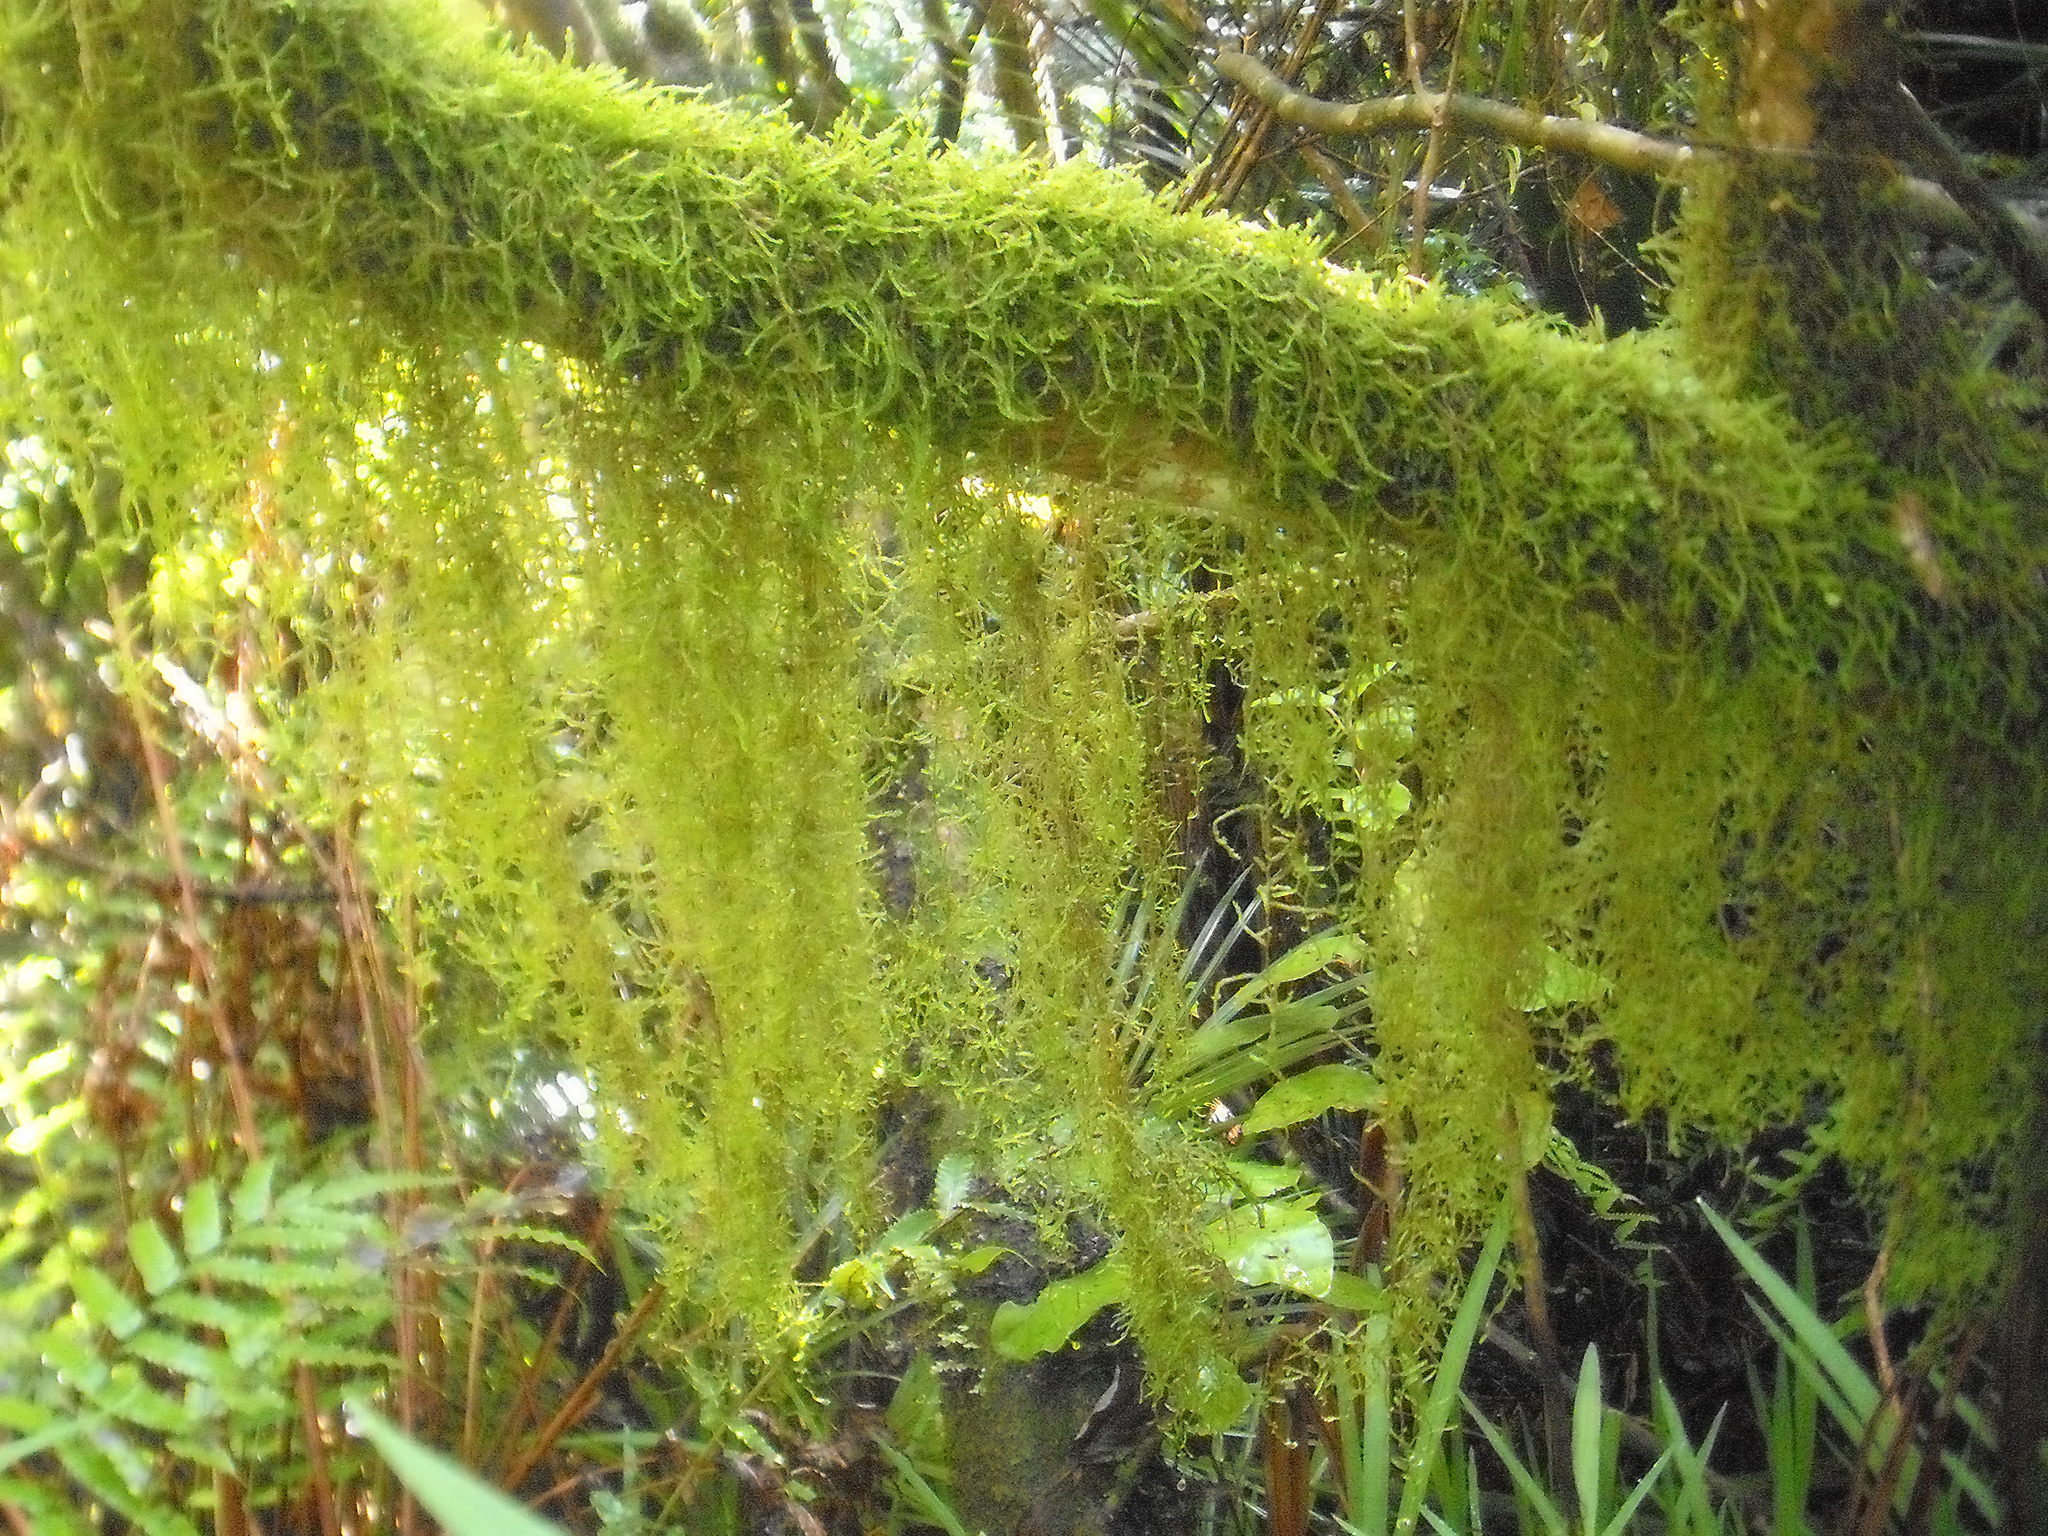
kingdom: Plantae
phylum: Bryophyta
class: Bryopsida
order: Hypnales
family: Lembophyllaceae
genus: Weymouthia
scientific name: Weymouthia mollis
